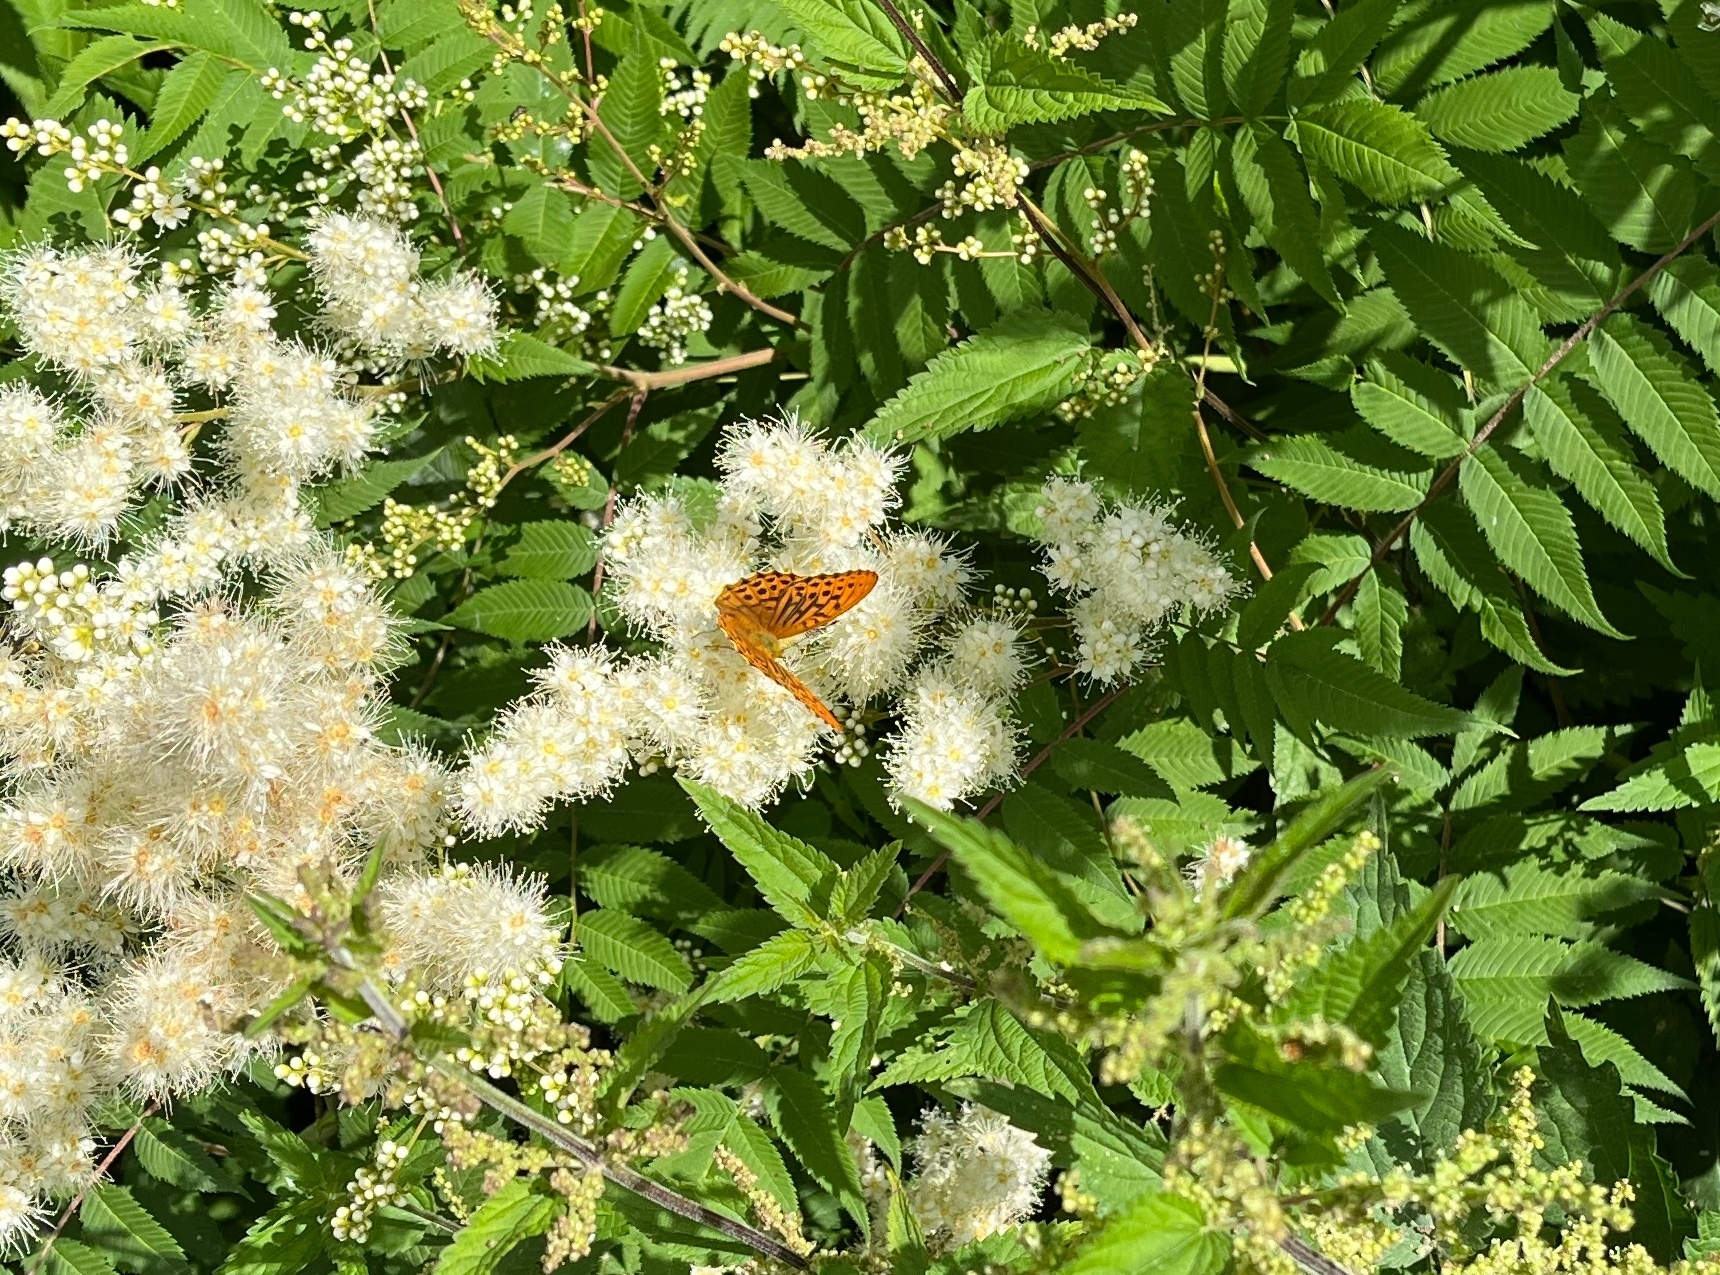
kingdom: Animalia
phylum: Arthropoda
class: Insecta
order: Lepidoptera
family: Nymphalidae
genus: Argynnis
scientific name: Argynnis paphia
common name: Silver-washed fritillary
